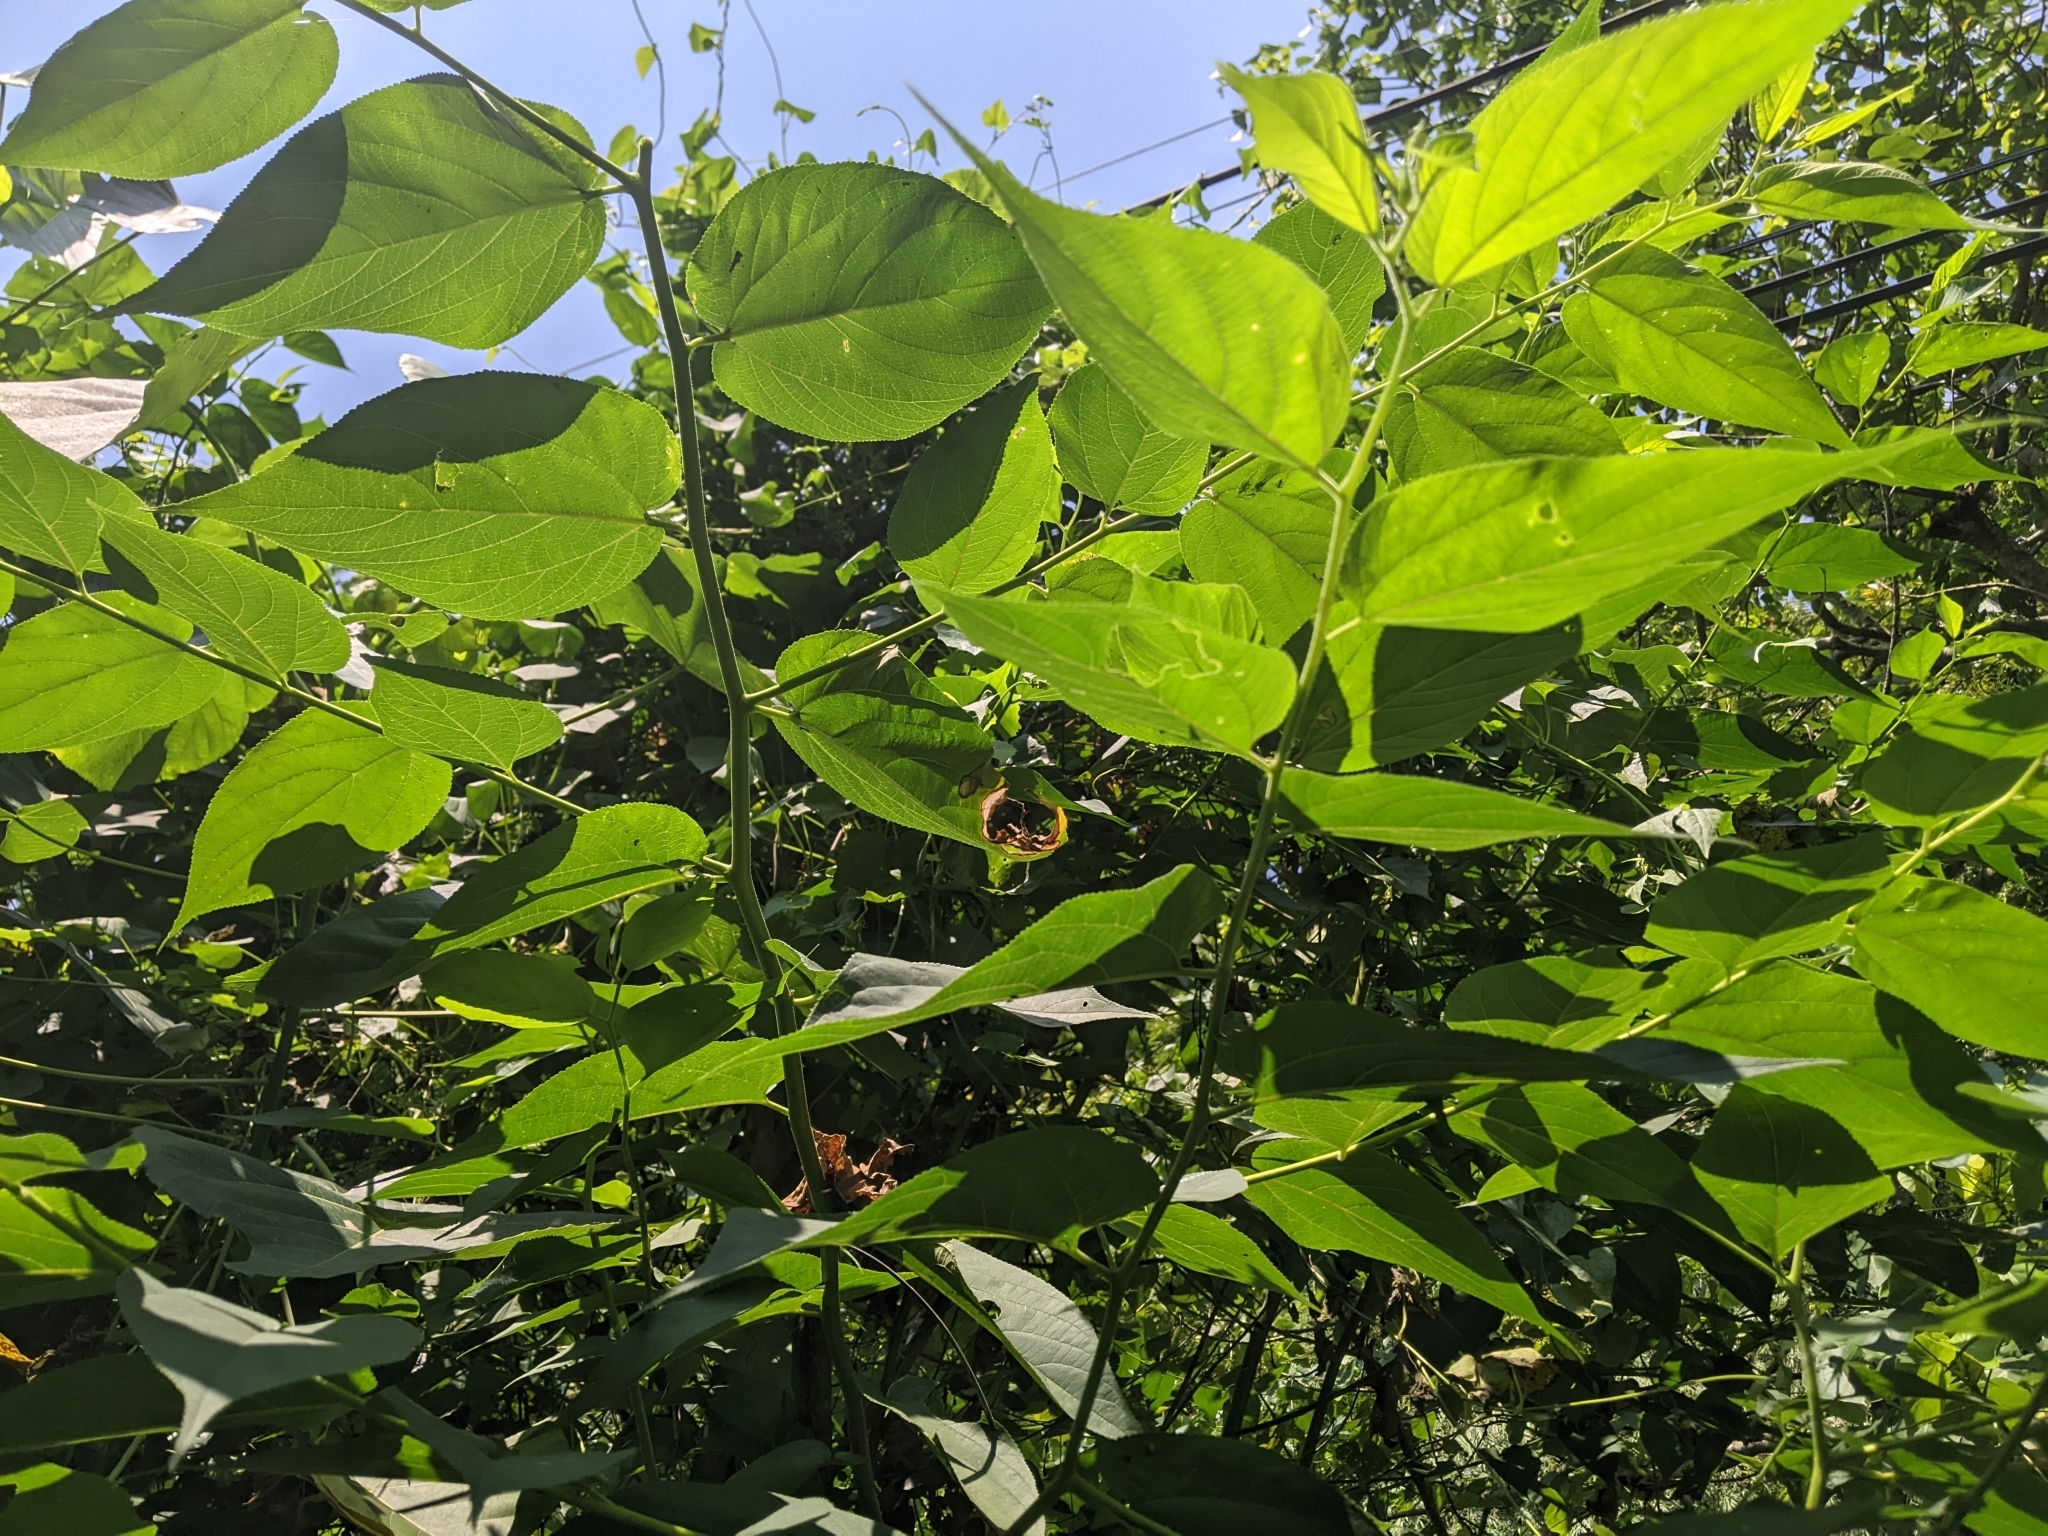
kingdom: Plantae
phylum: Tracheophyta
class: Magnoliopsida
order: Rosales
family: Cannabaceae
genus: Trema
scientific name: Trema orientale
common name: Indian charcoal tree
